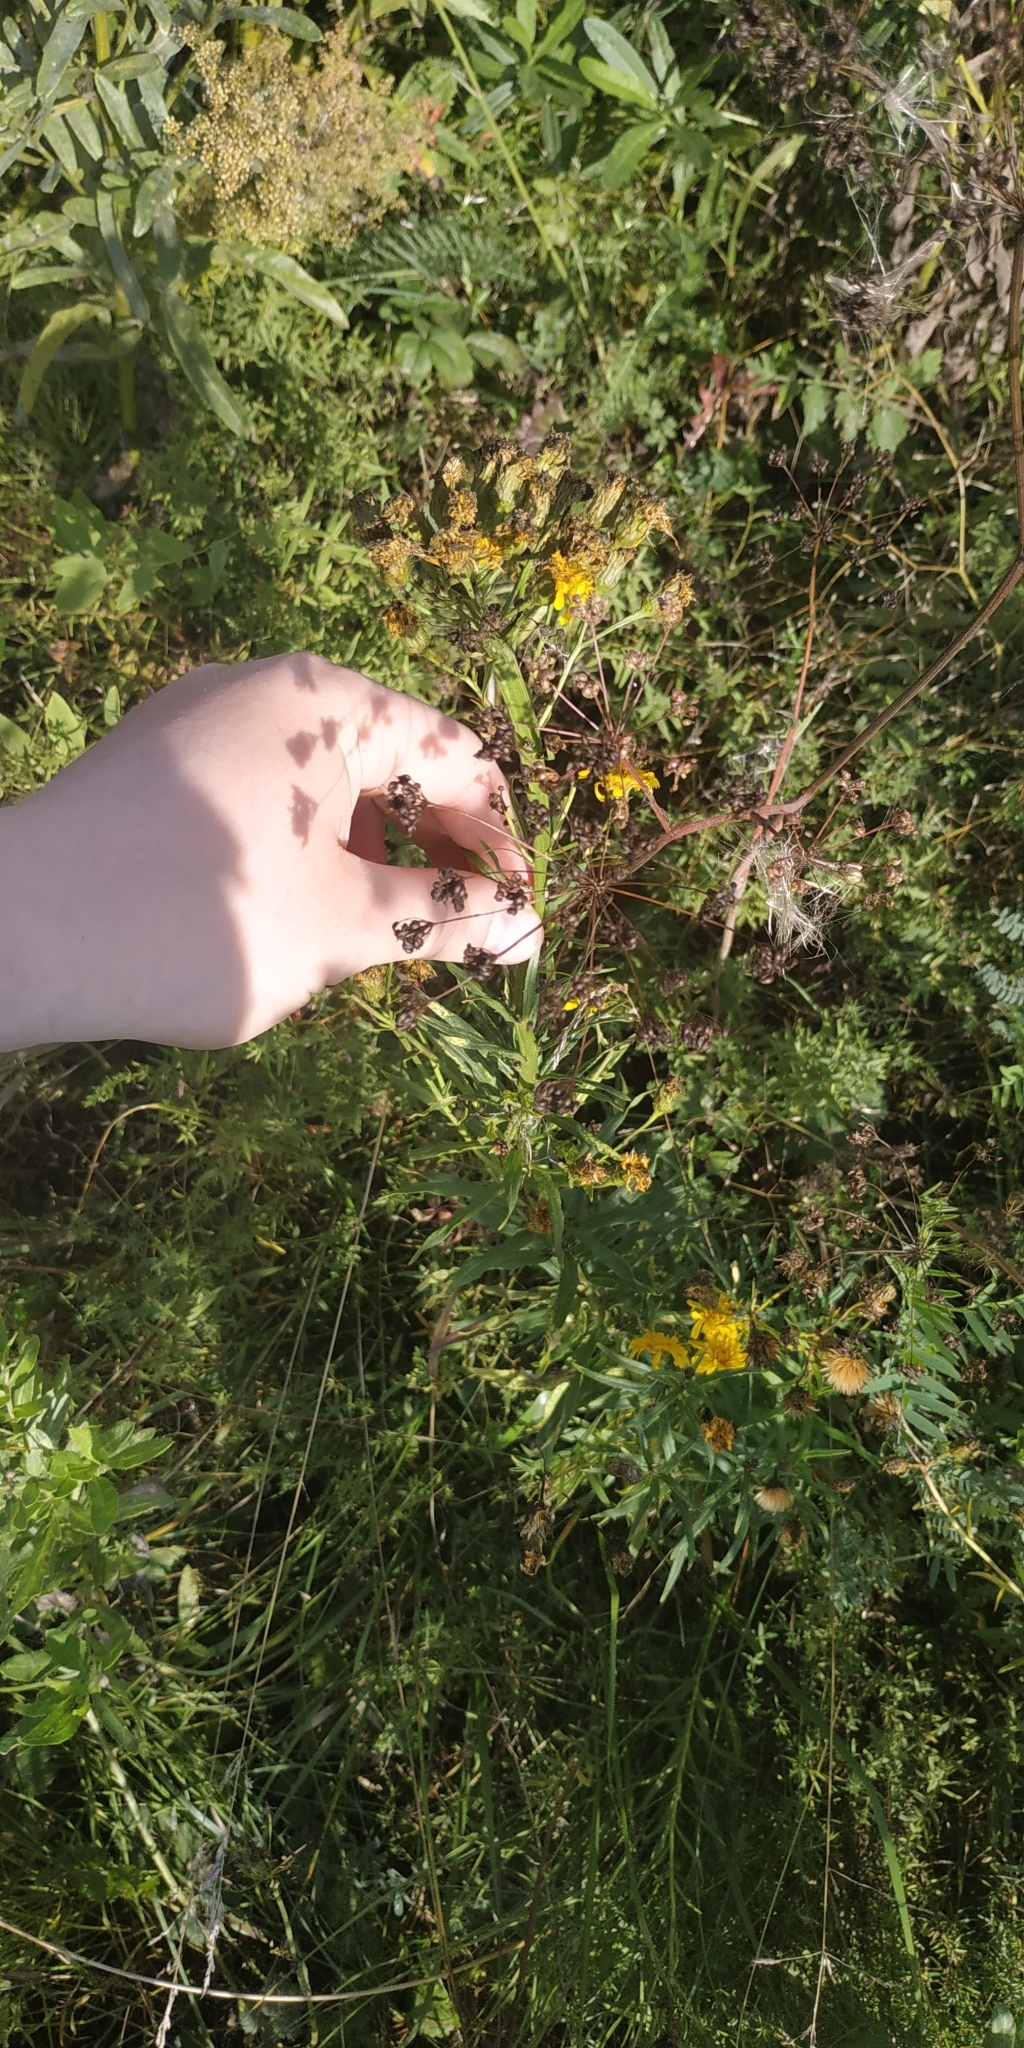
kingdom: Plantae
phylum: Tracheophyta
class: Magnoliopsida
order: Asterales
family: Asteraceae
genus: Hieracium
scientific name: Hieracium umbellatum
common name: Northern hawkweed
